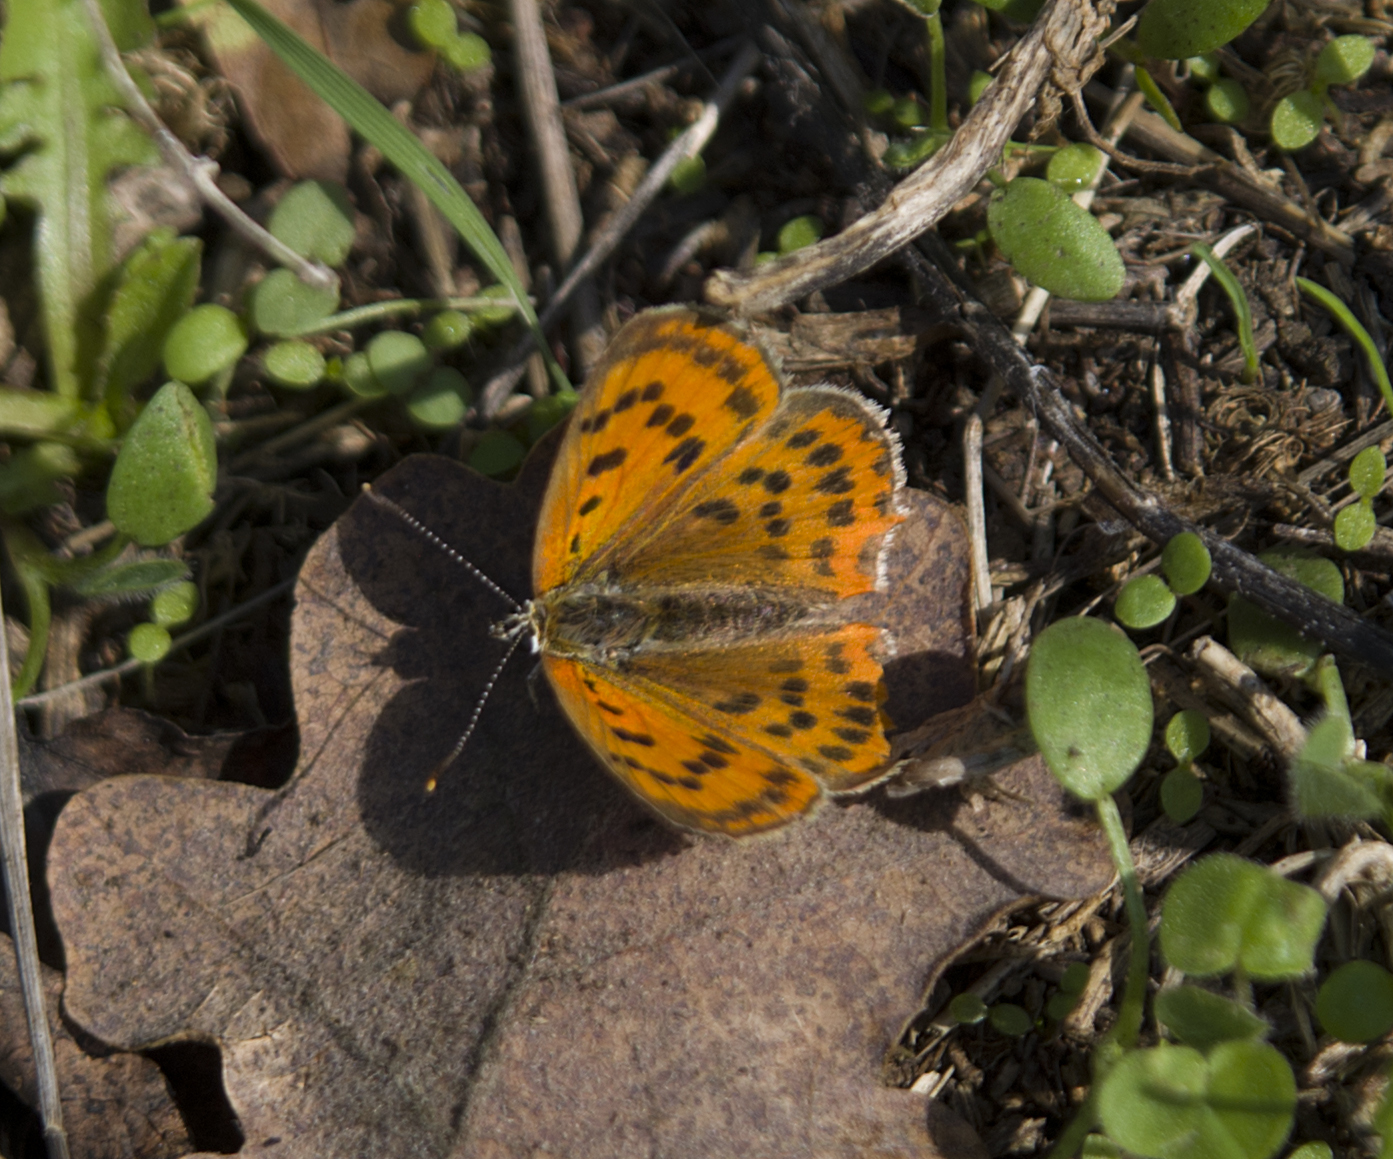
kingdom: Animalia
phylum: Arthropoda
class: Insecta
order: Lepidoptera
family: Lycaenidae
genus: Polyommatus
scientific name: Polyommatus ottomanus
